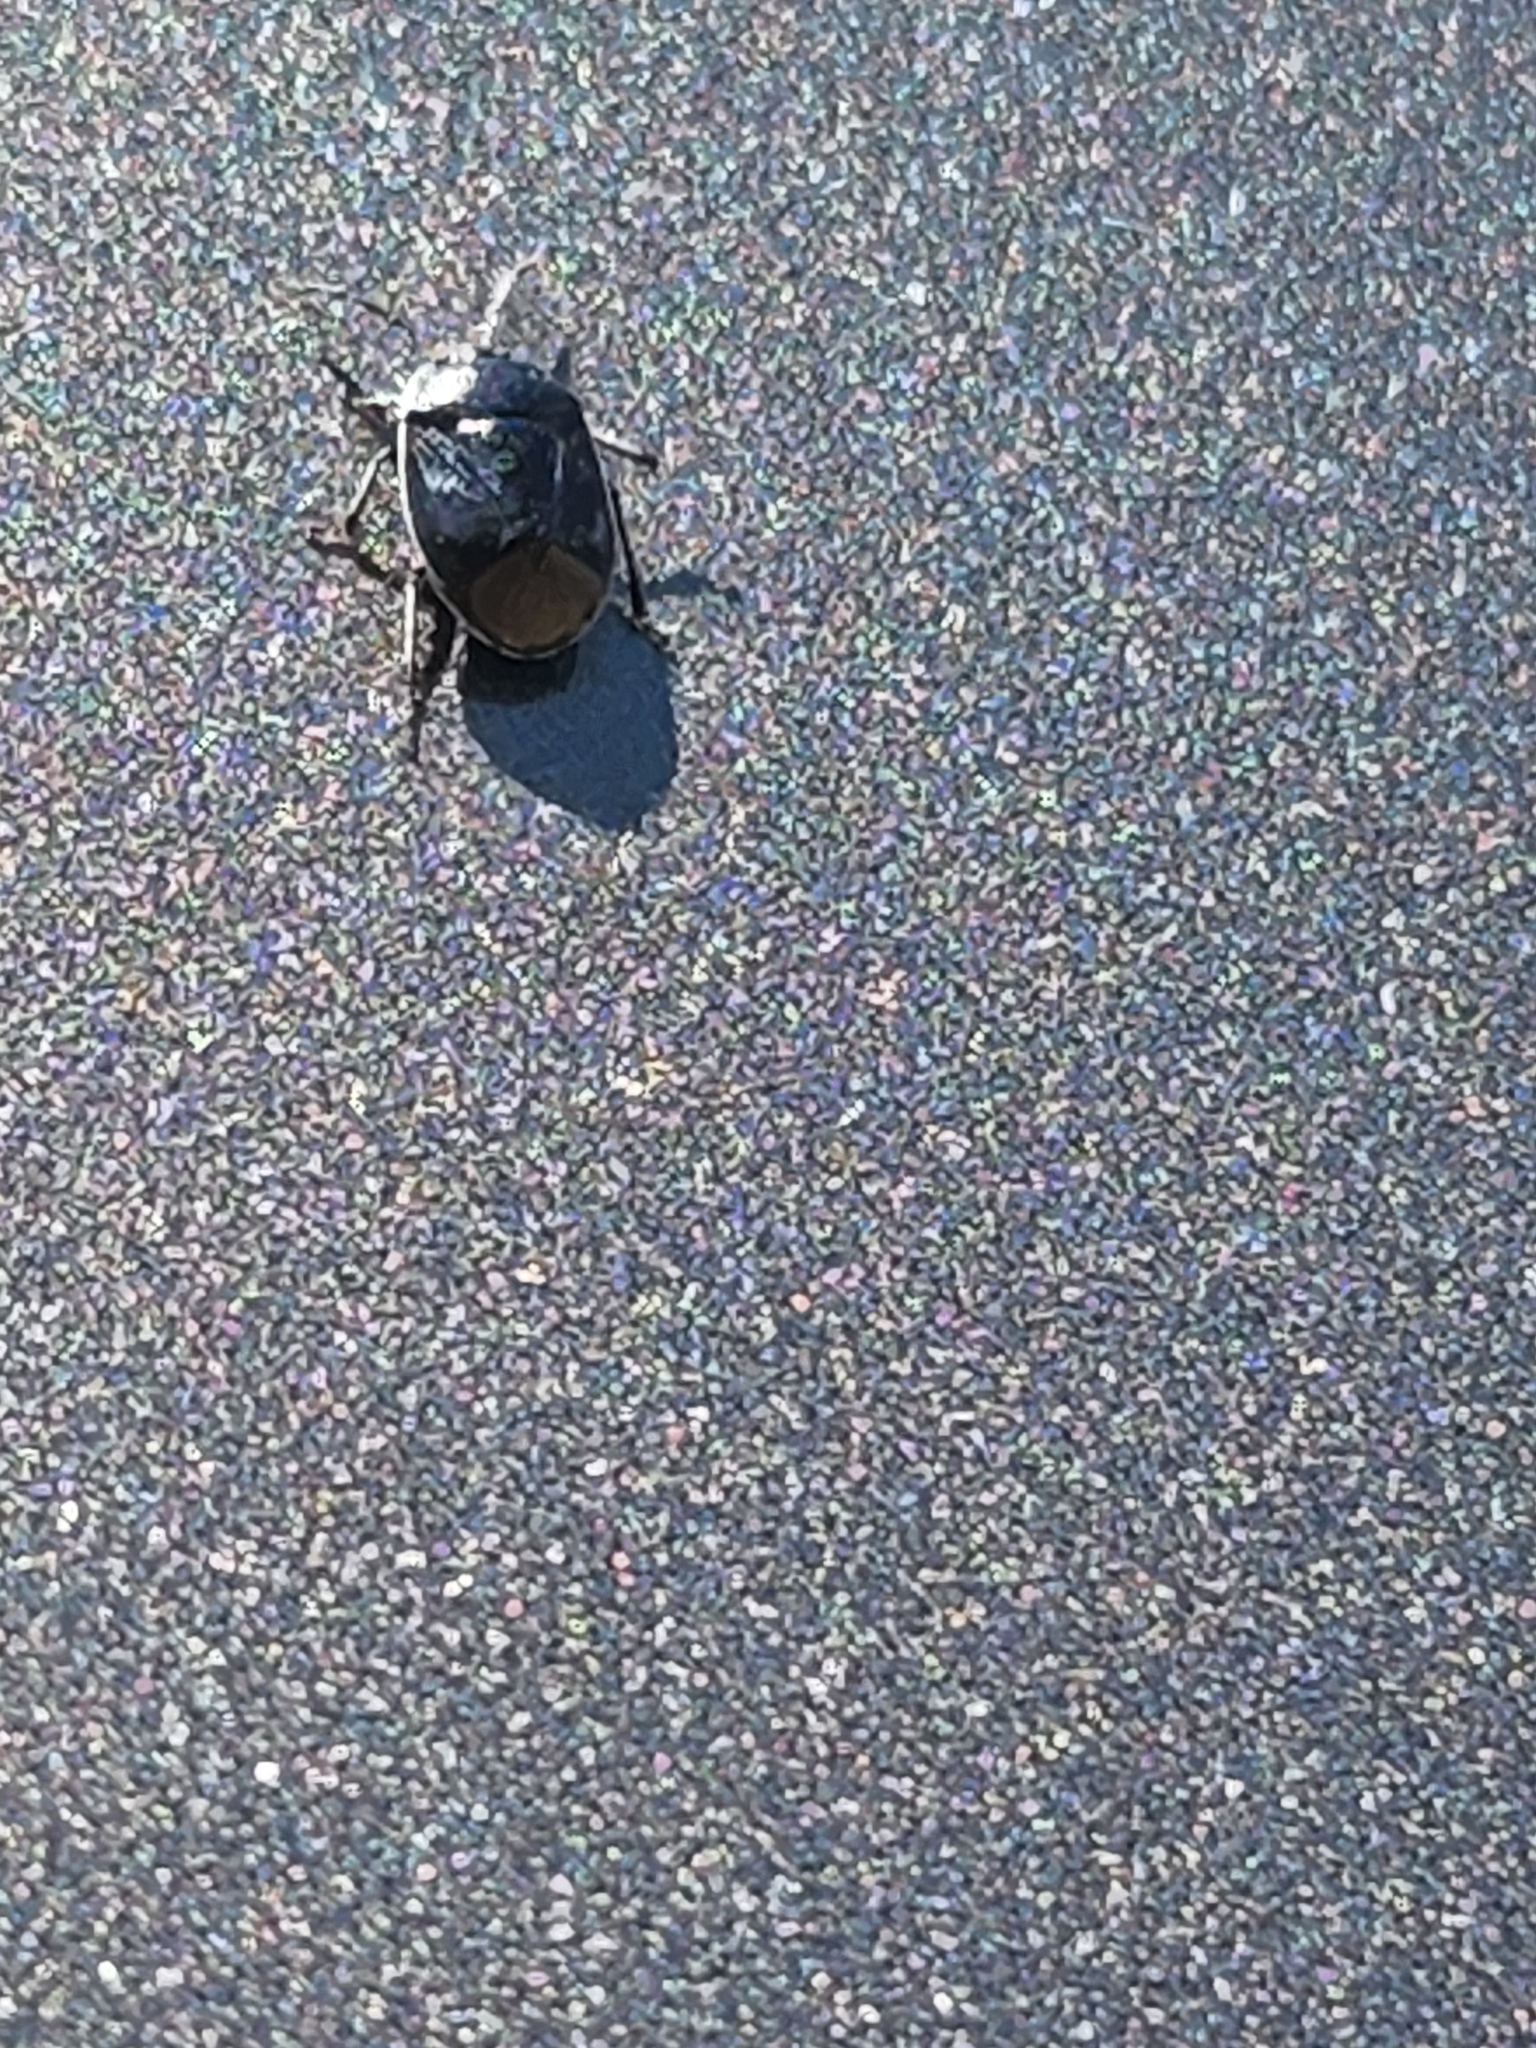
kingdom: Animalia
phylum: Arthropoda
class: Insecta
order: Hemiptera
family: Cydnidae
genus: Sehirus
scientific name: Sehirus cinctus
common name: White-margined burrower bug
